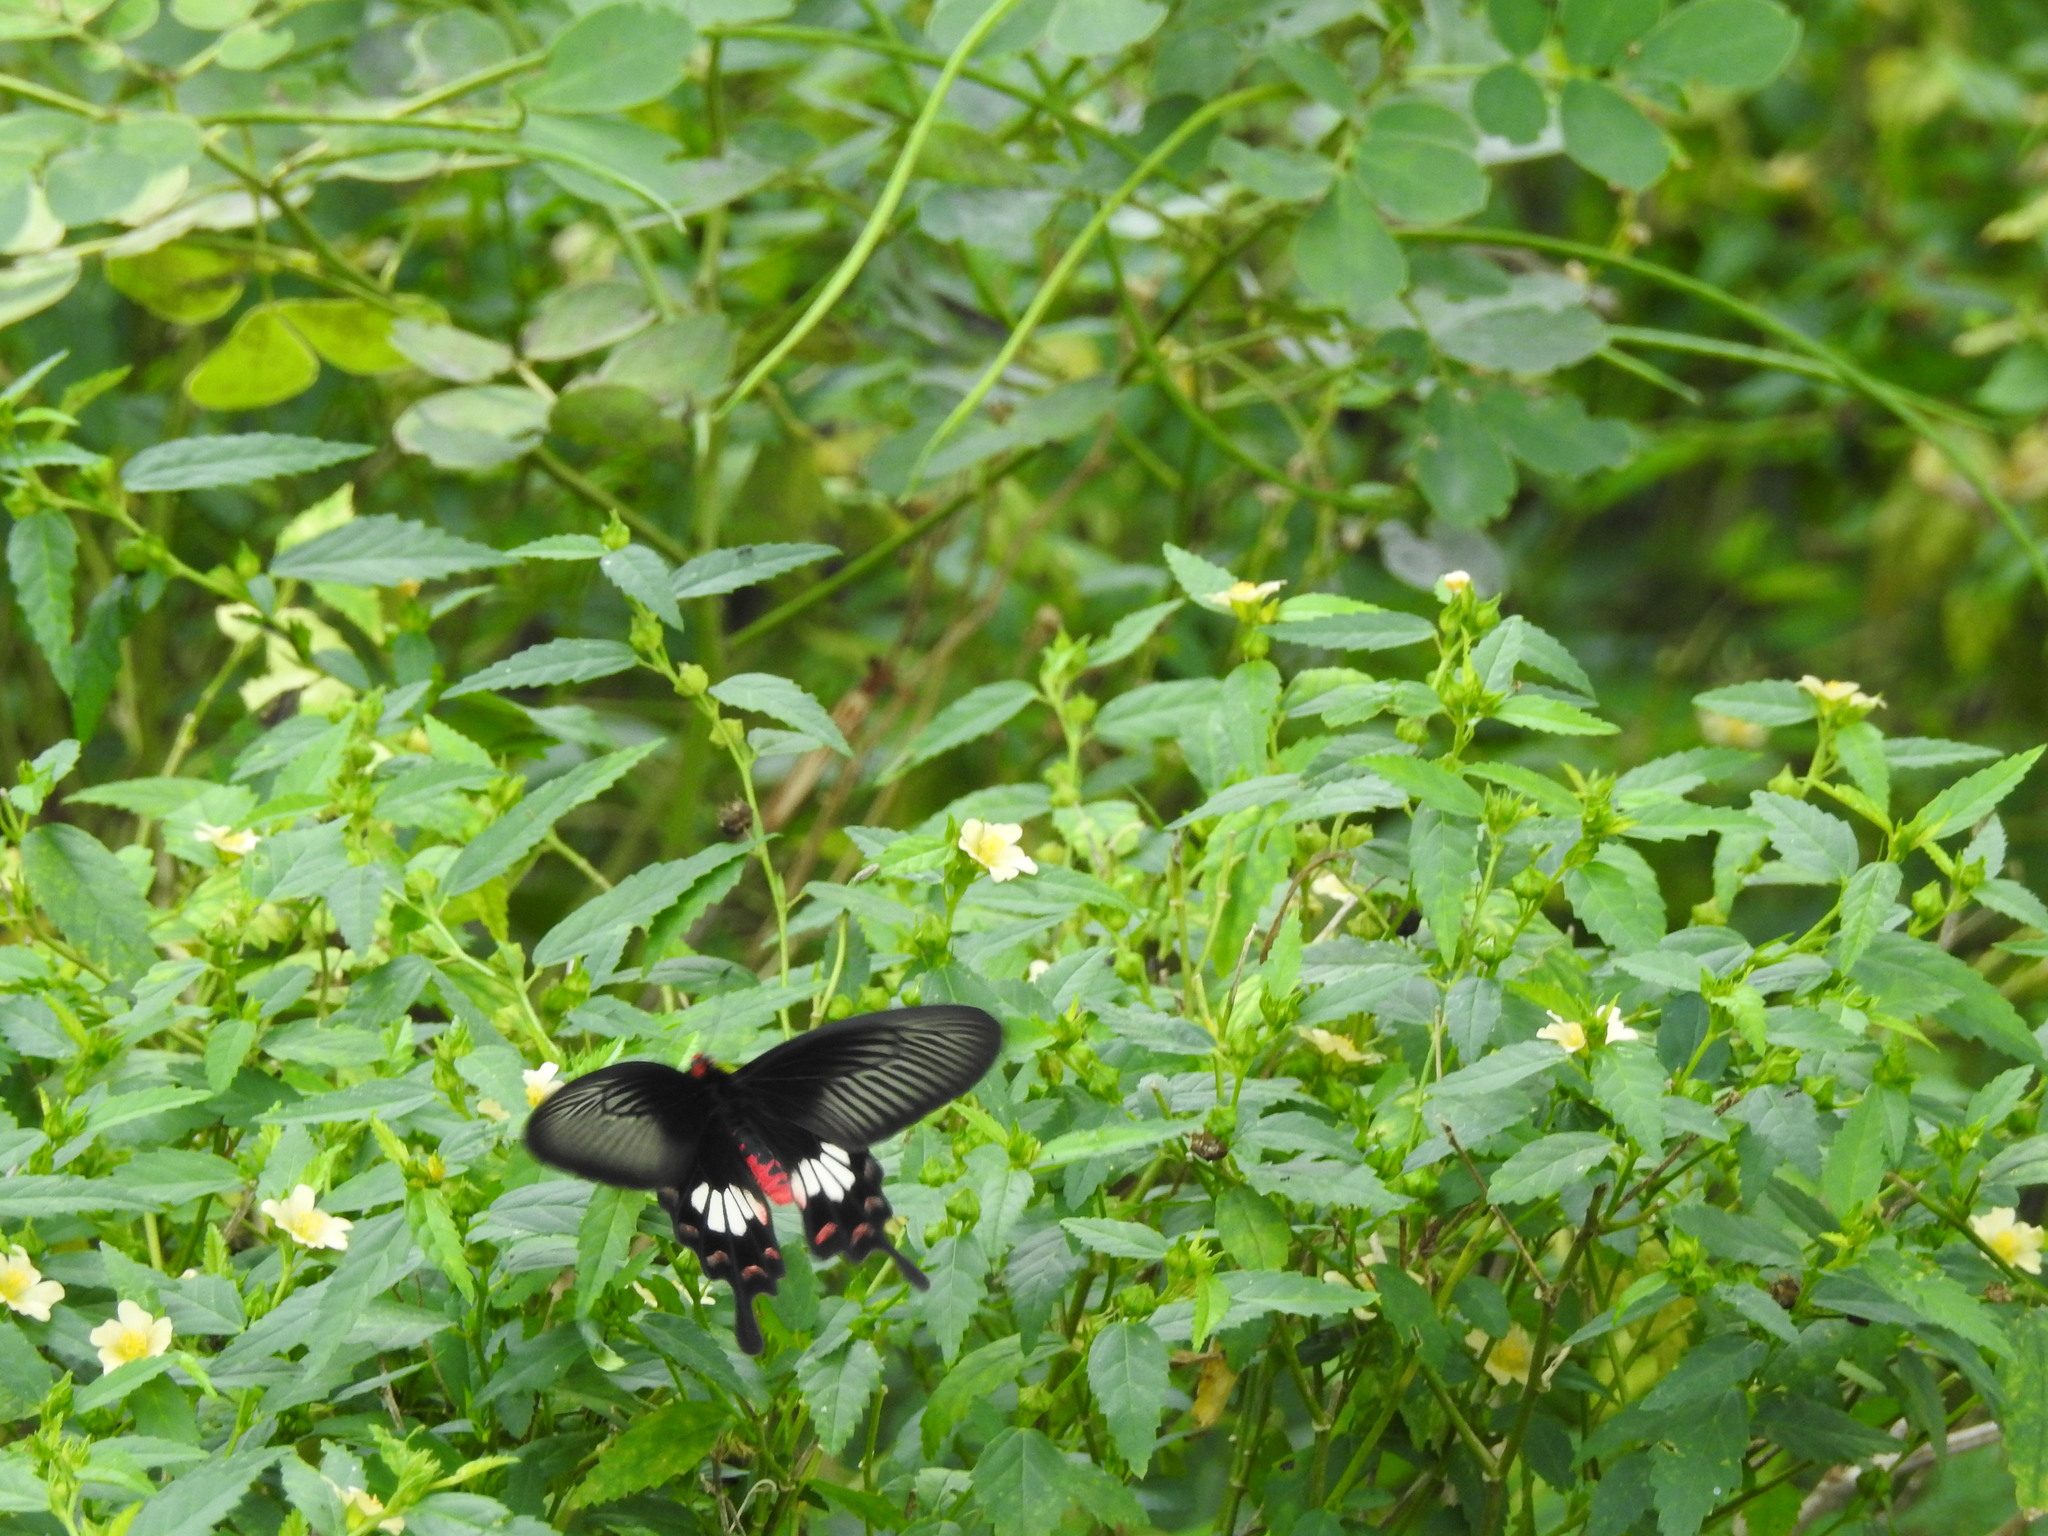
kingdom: Animalia
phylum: Arthropoda
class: Insecta
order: Lepidoptera
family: Papilionidae
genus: Pachliopta
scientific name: Pachliopta aristolochiae
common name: Common rose
